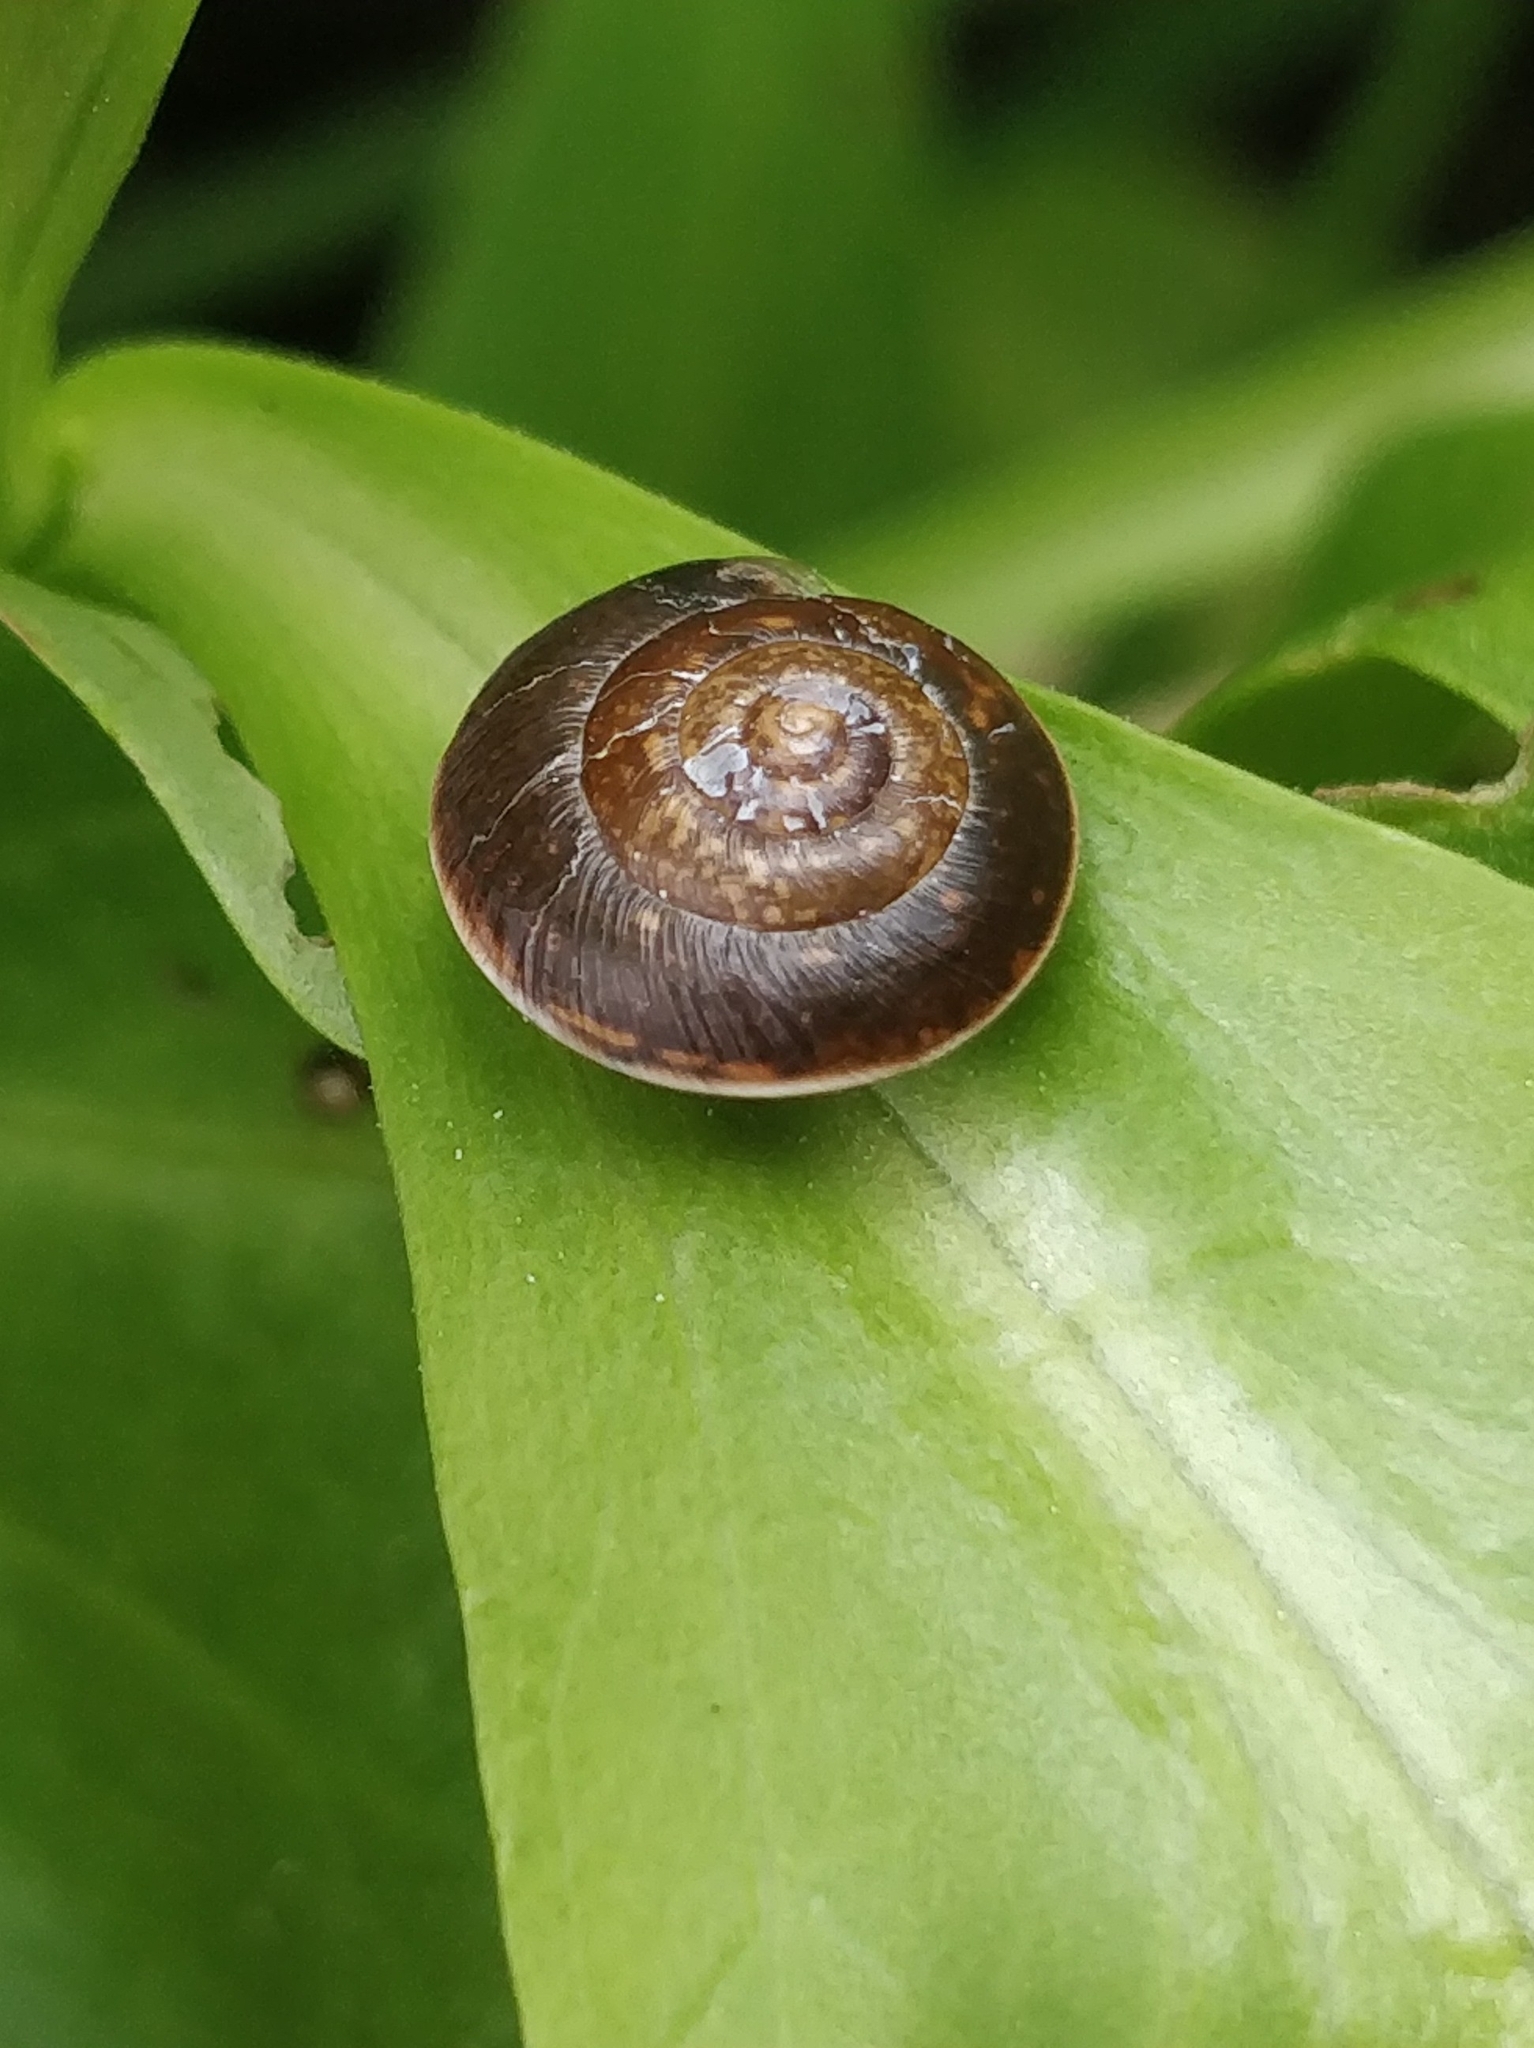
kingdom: Animalia
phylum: Mollusca
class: Gastropoda
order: Stylommatophora
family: Hygromiidae
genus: Hygromia
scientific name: Hygromia cinctella
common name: Girdled snail
